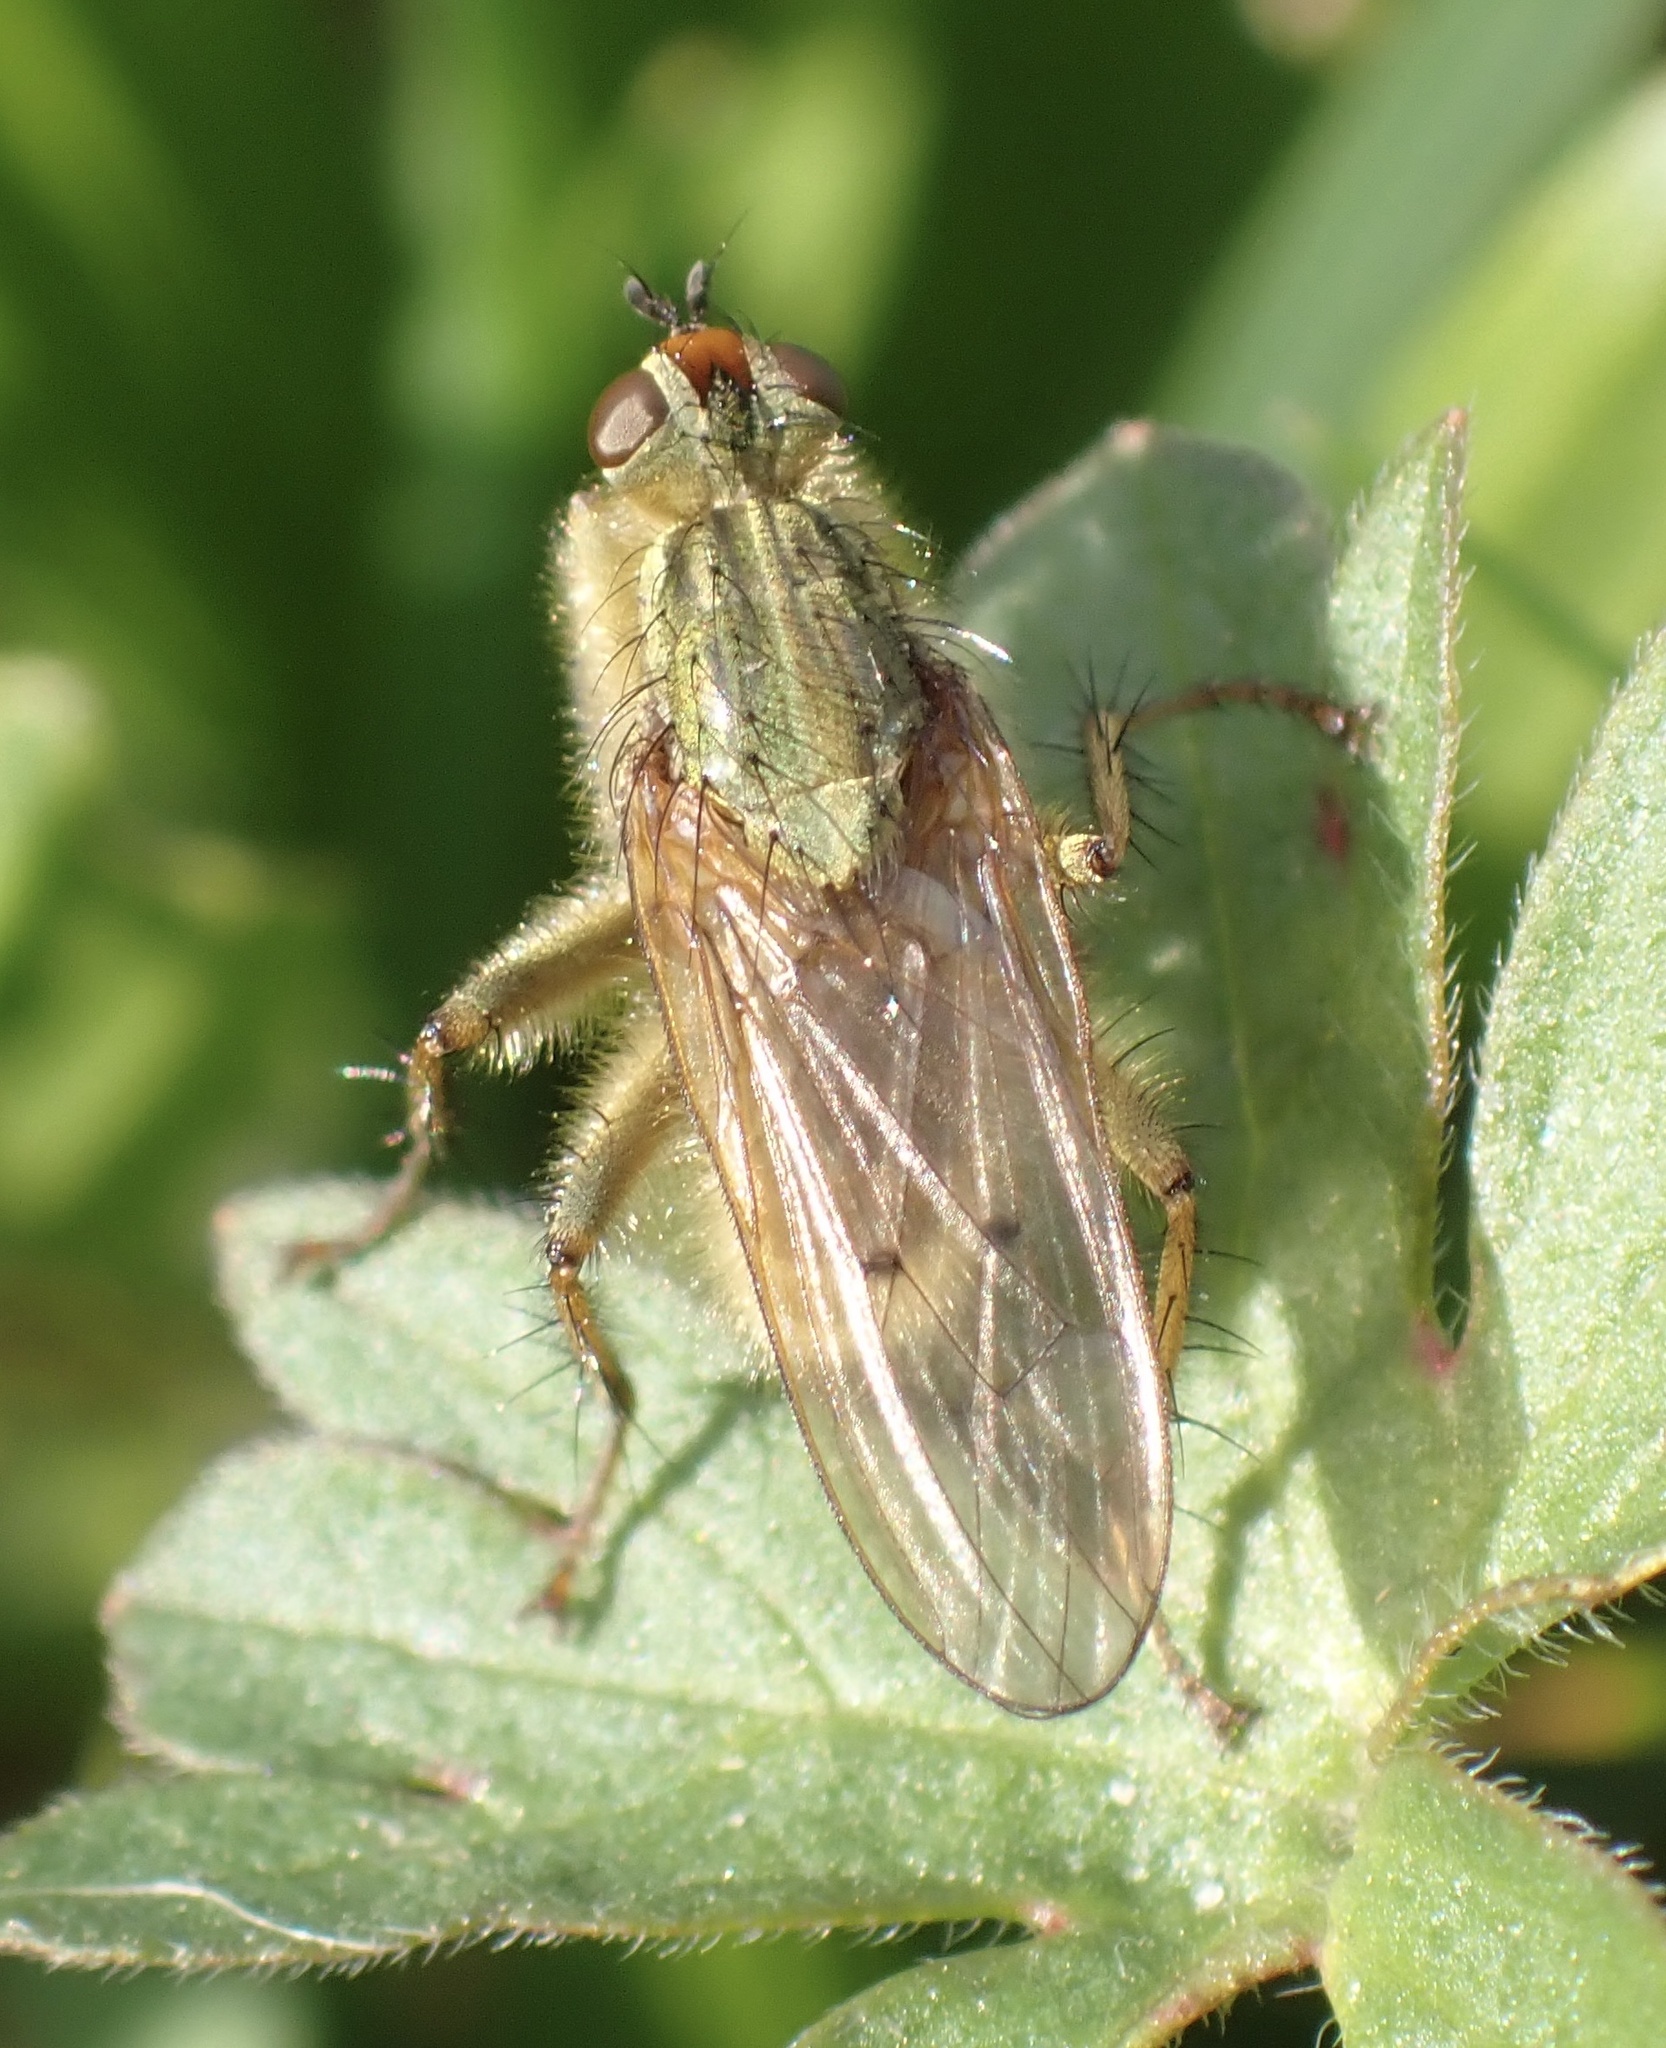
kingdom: Animalia
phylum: Arthropoda
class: Insecta
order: Diptera
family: Scathophagidae
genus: Scathophaga
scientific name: Scathophaga stercoraria
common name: Yellow dung fly
